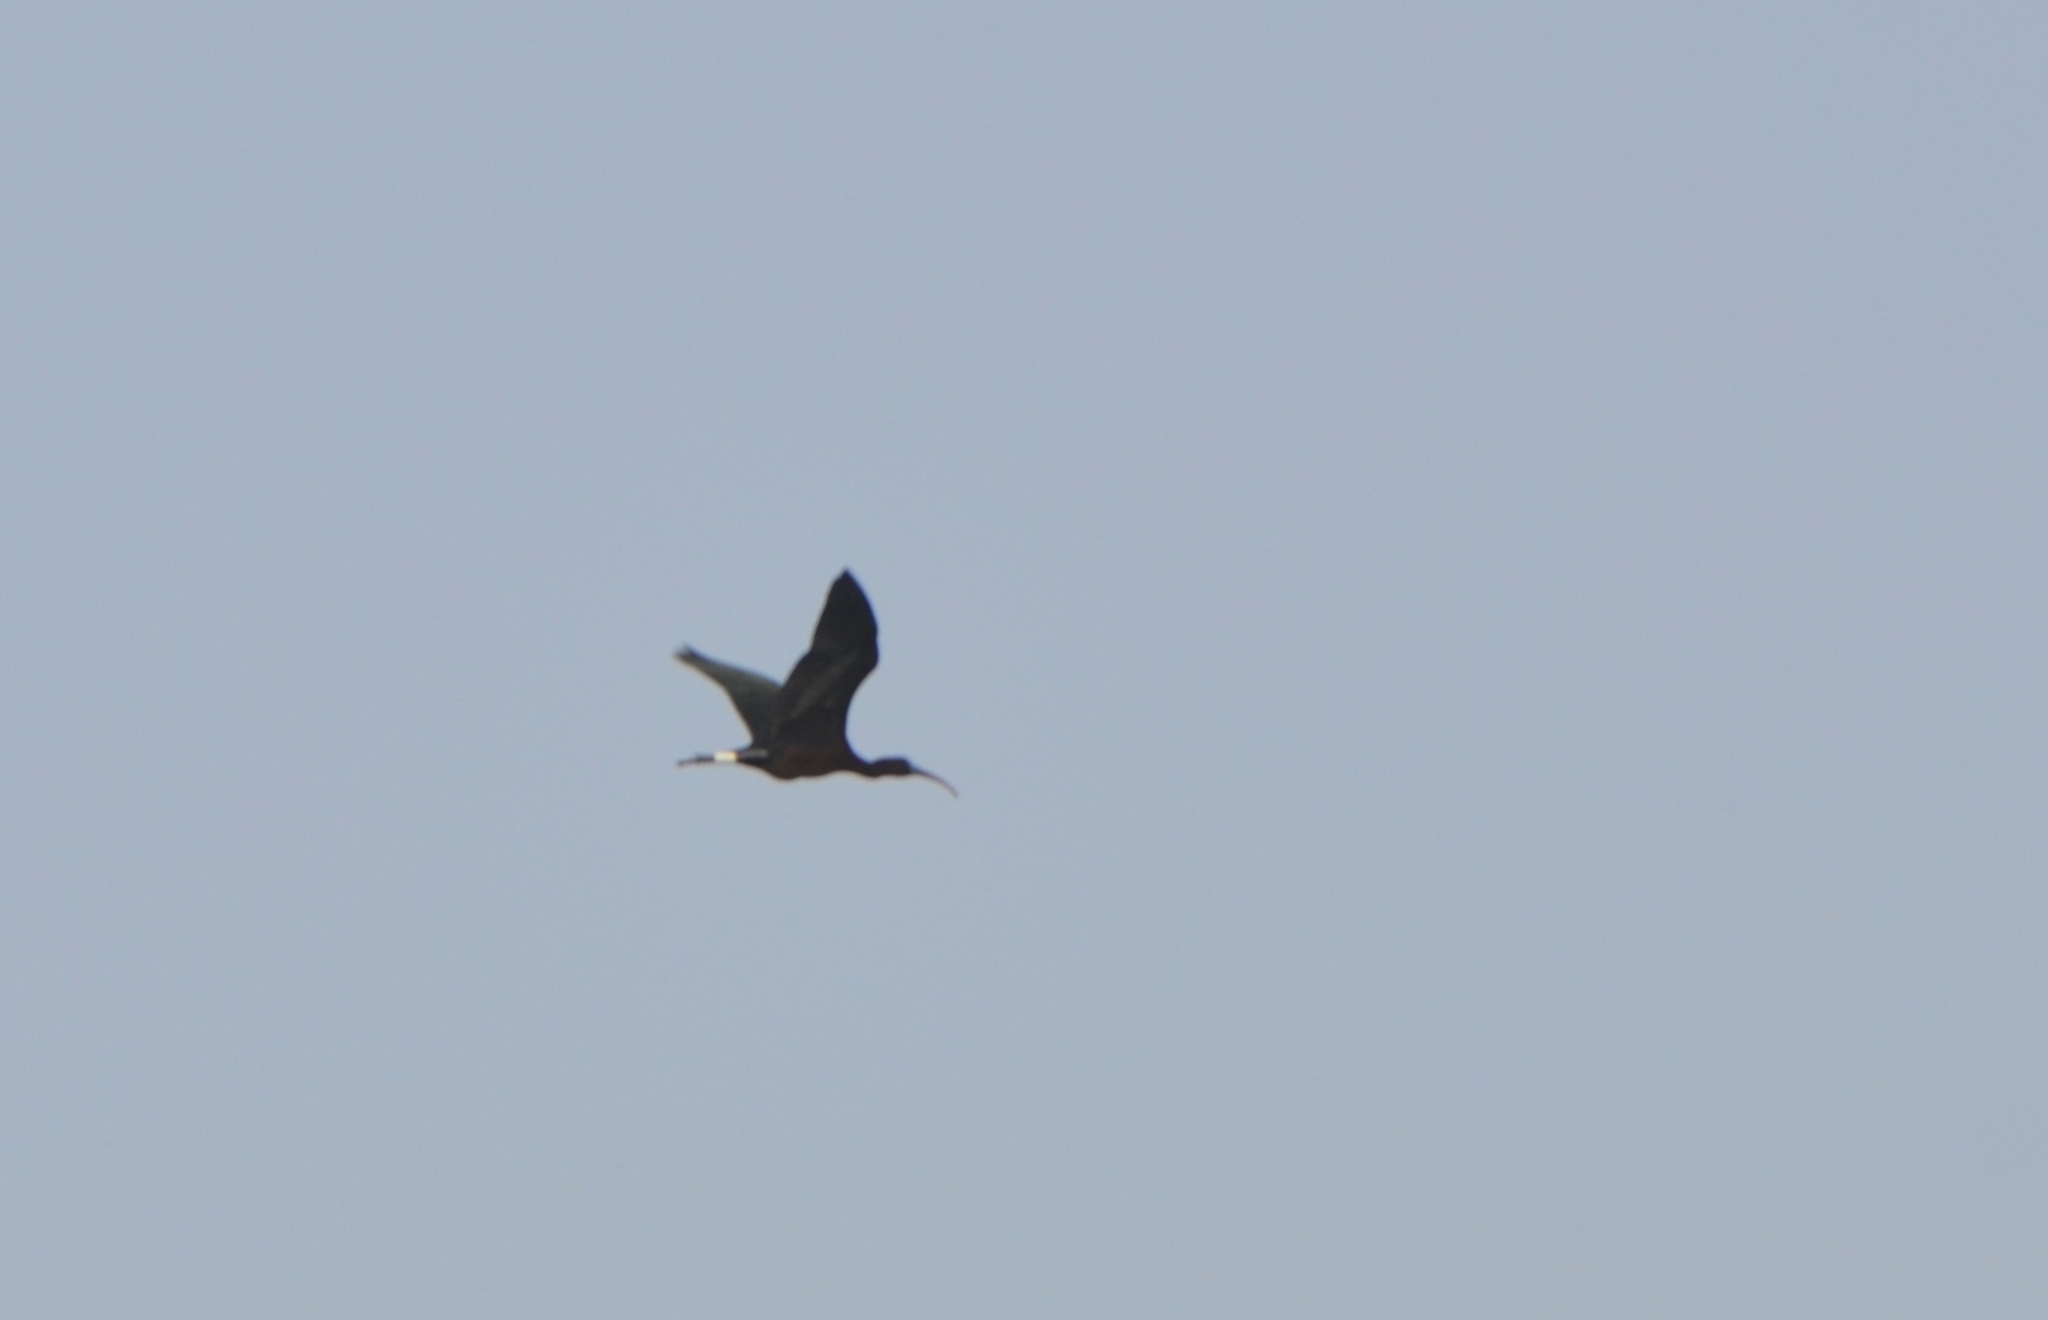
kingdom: Animalia
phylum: Chordata
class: Aves
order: Pelecaniformes
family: Threskiornithidae
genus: Plegadis
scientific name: Plegadis falcinellus
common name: Glossy ibis
